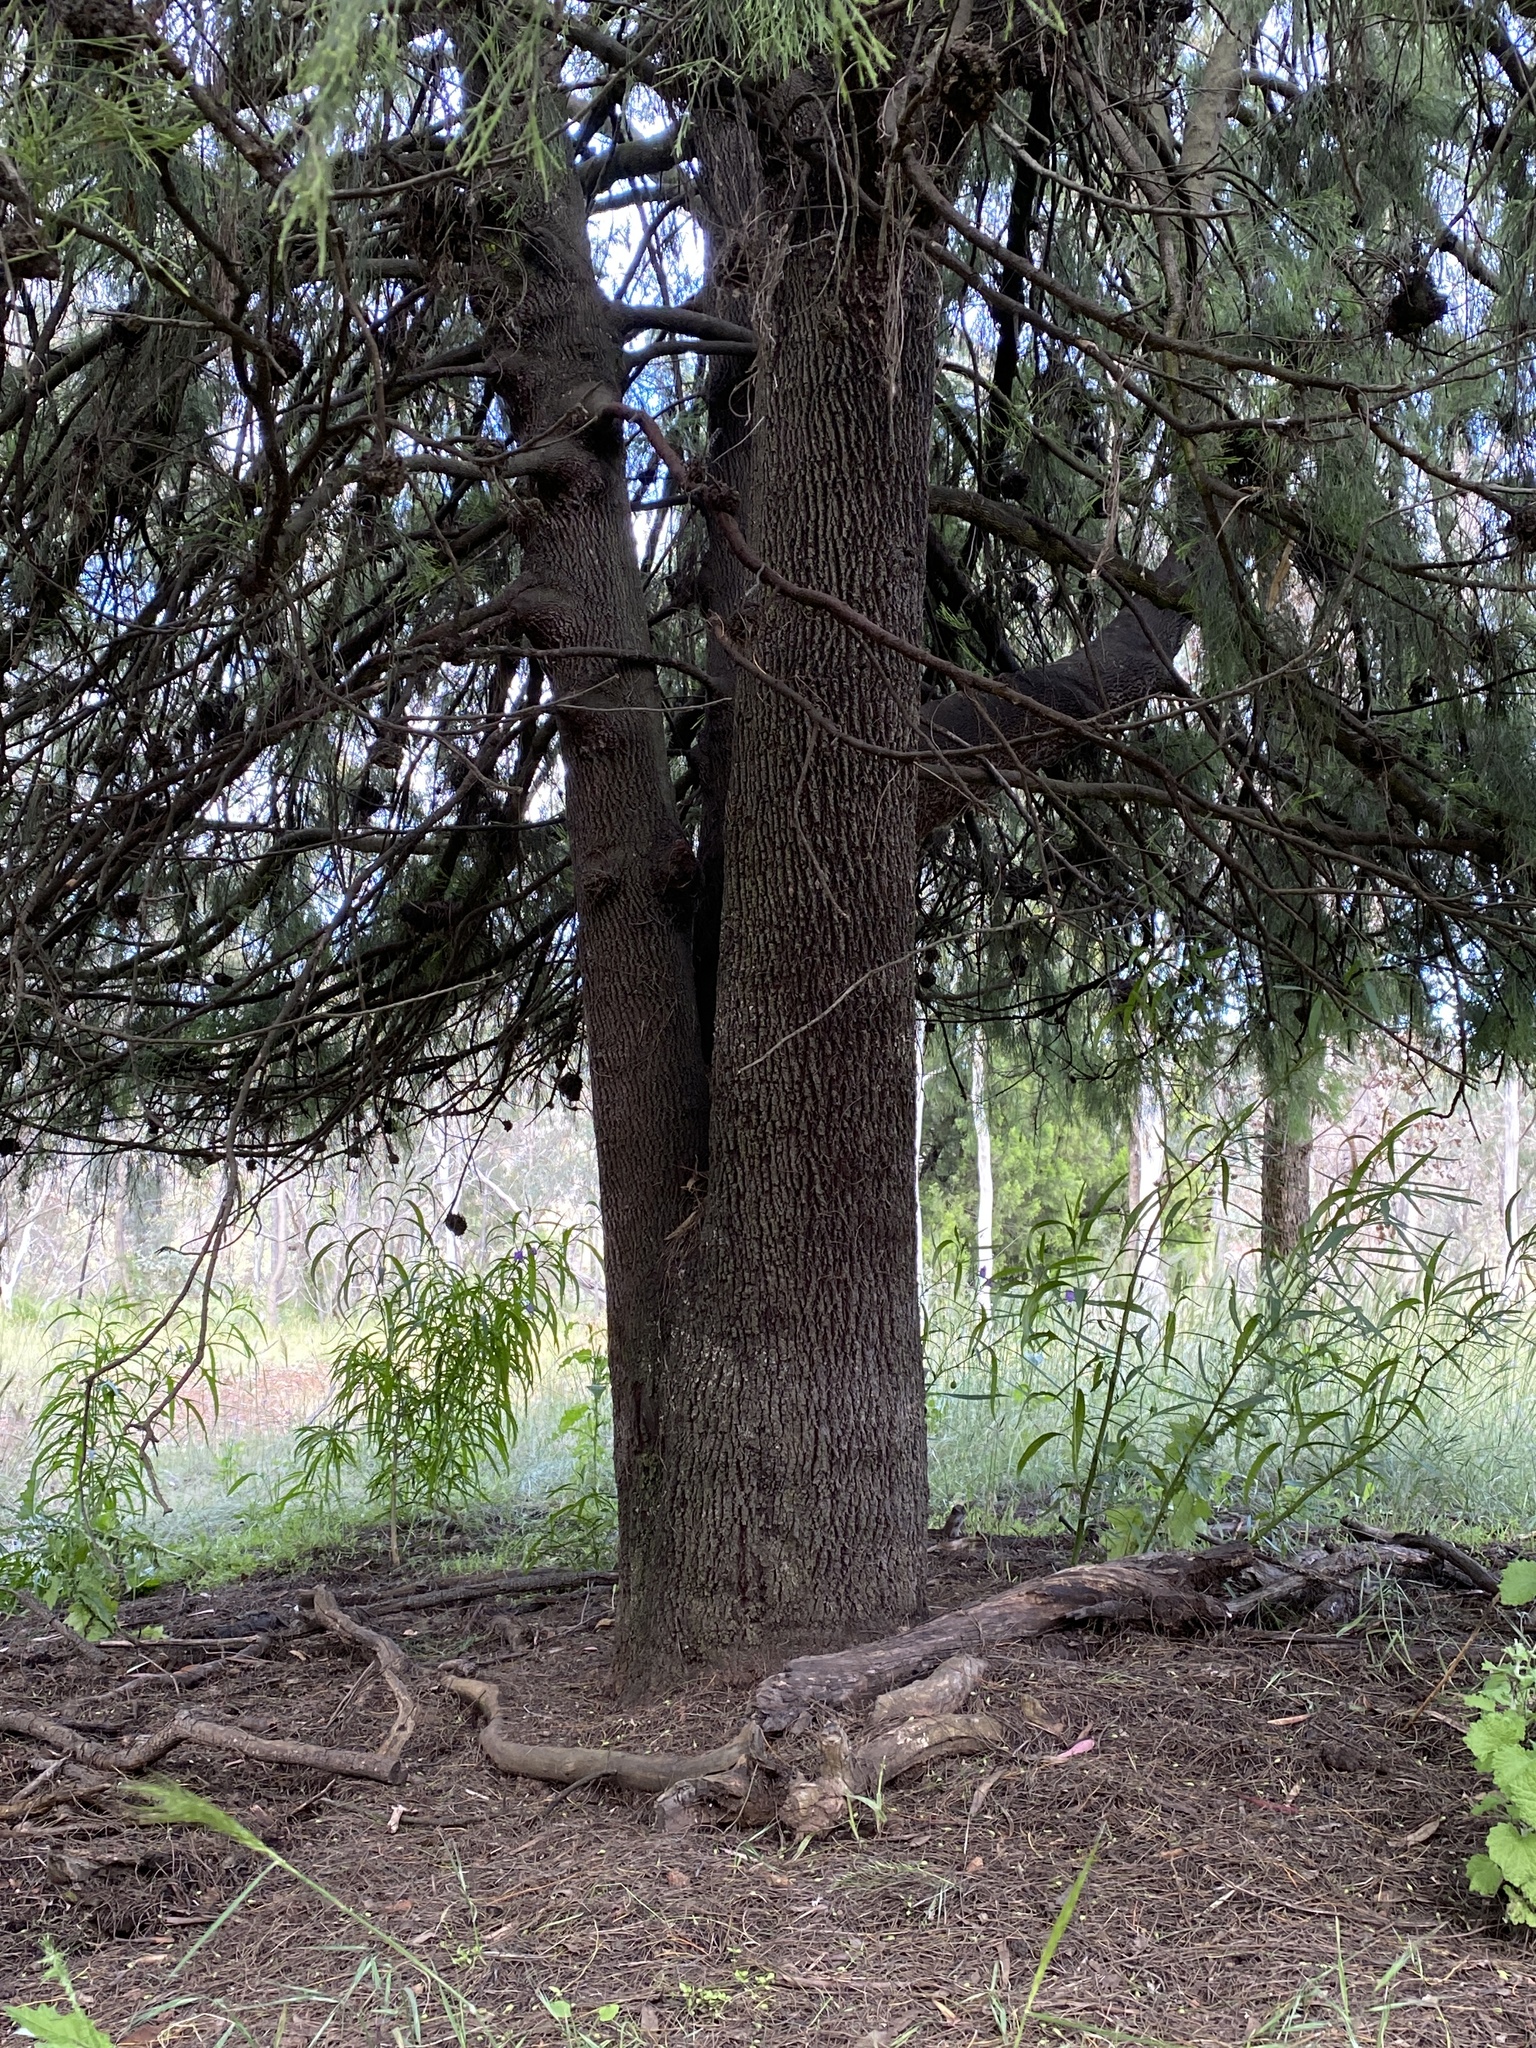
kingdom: Plantae
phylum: Tracheophyta
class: Magnoliopsida
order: Santalales
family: Santalaceae
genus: Exocarpos
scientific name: Exocarpos cupressiformis
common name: Cherry ballart
